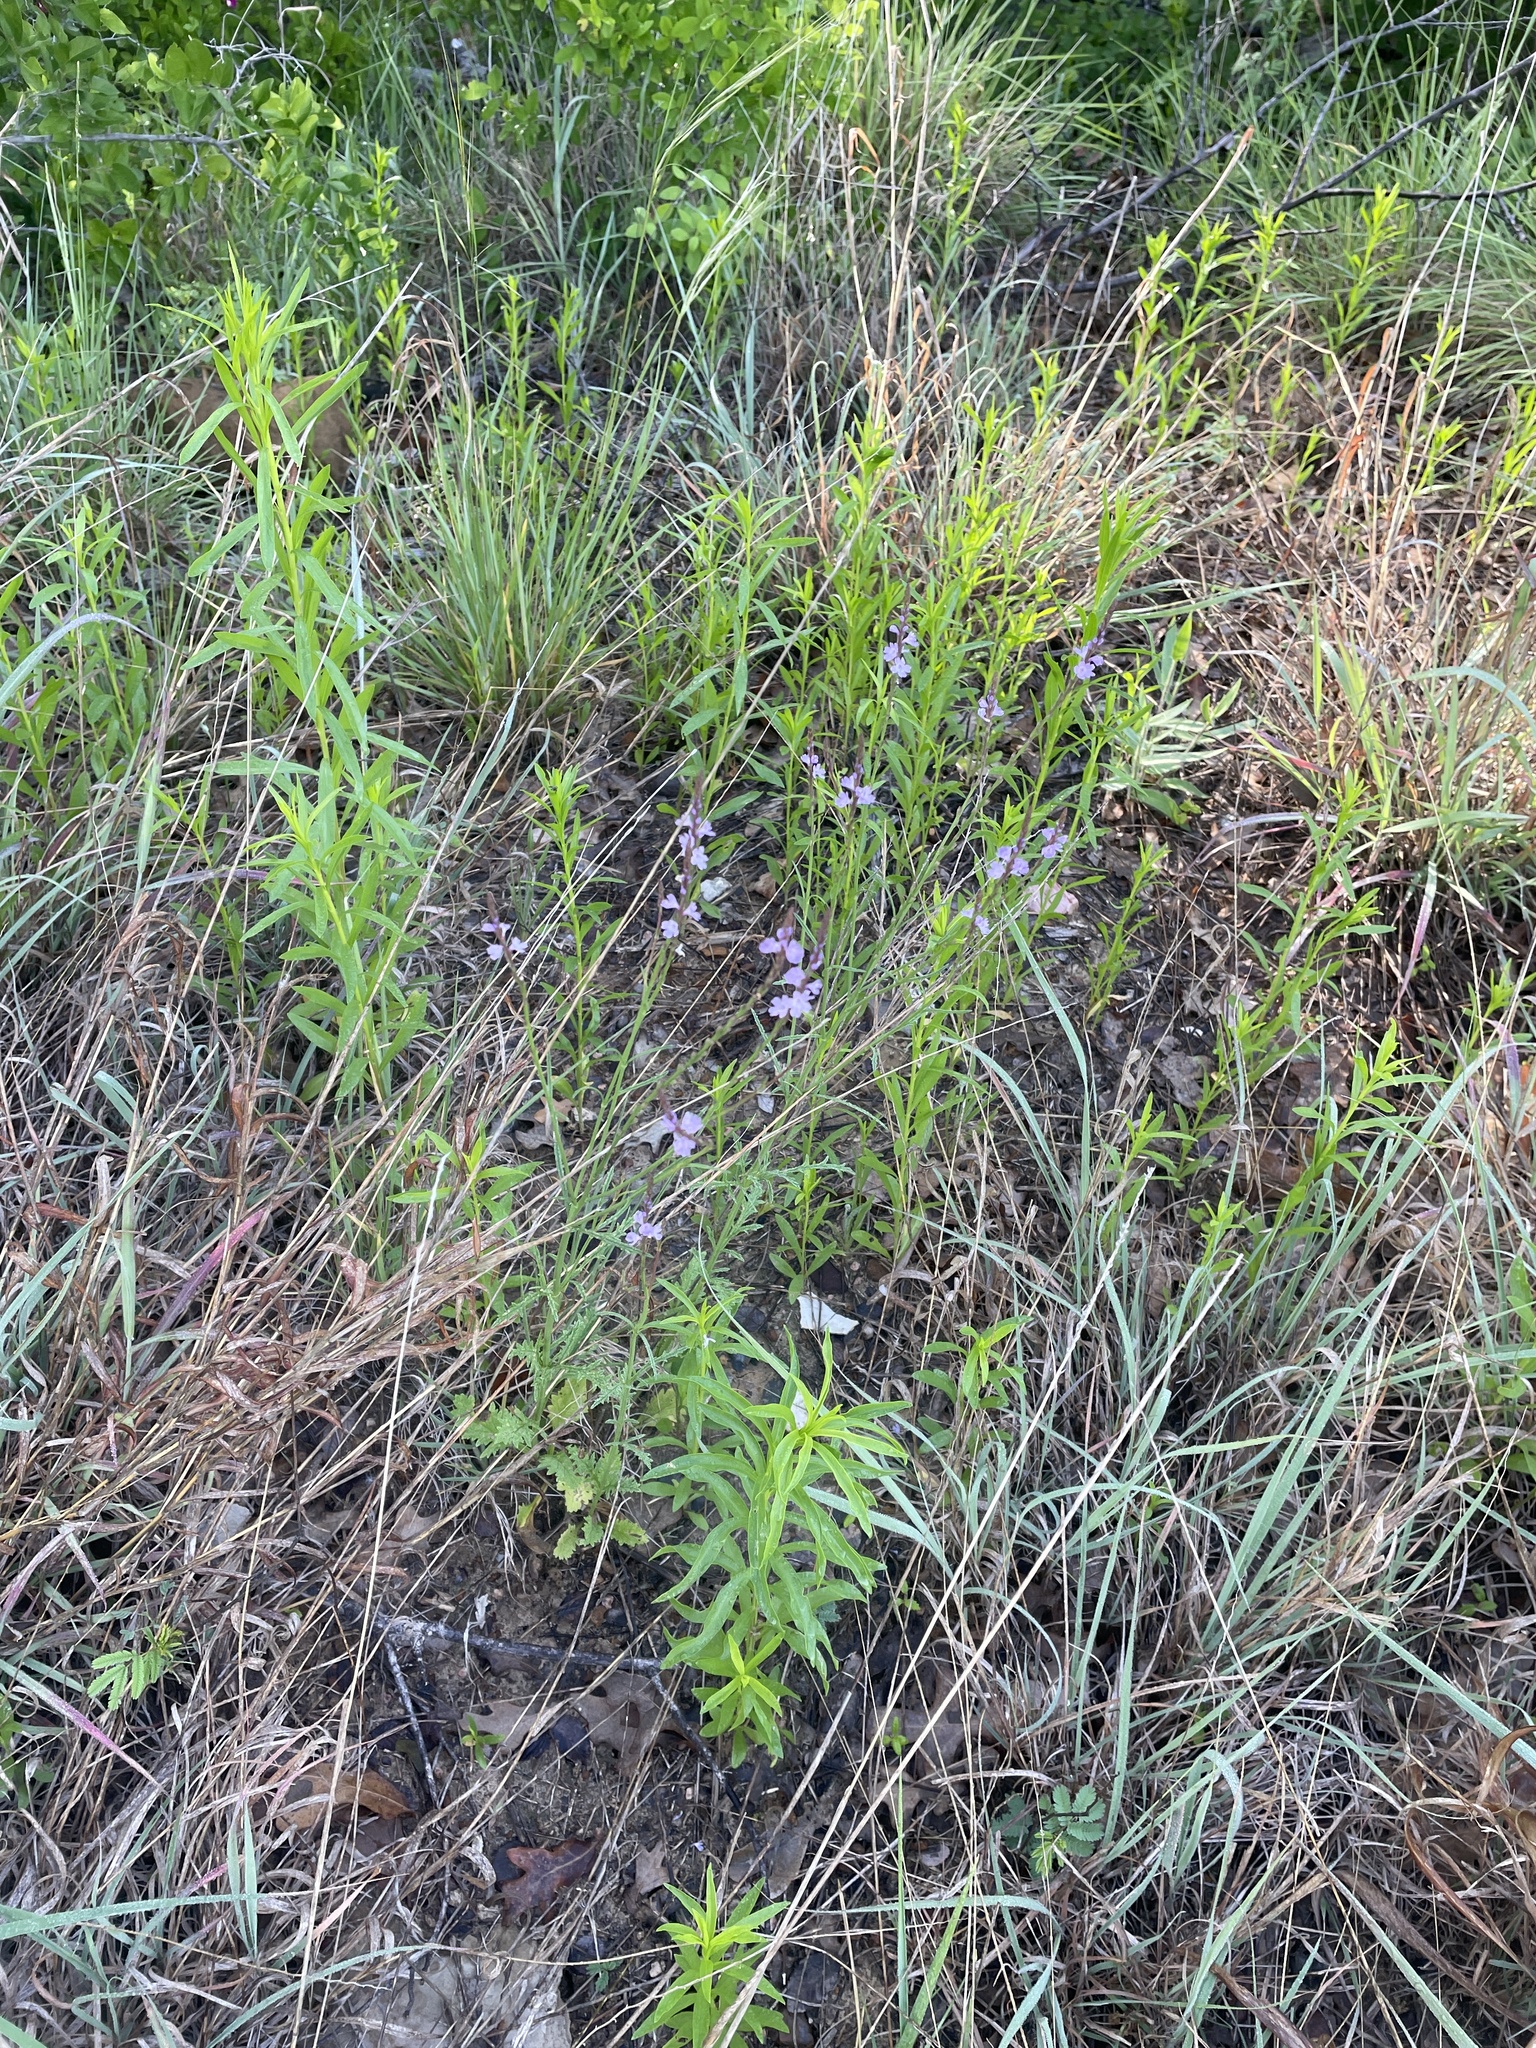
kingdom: Plantae
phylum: Tracheophyta
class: Magnoliopsida
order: Lamiales
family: Verbenaceae
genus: Verbena
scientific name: Verbena halei
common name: Texas vervain
